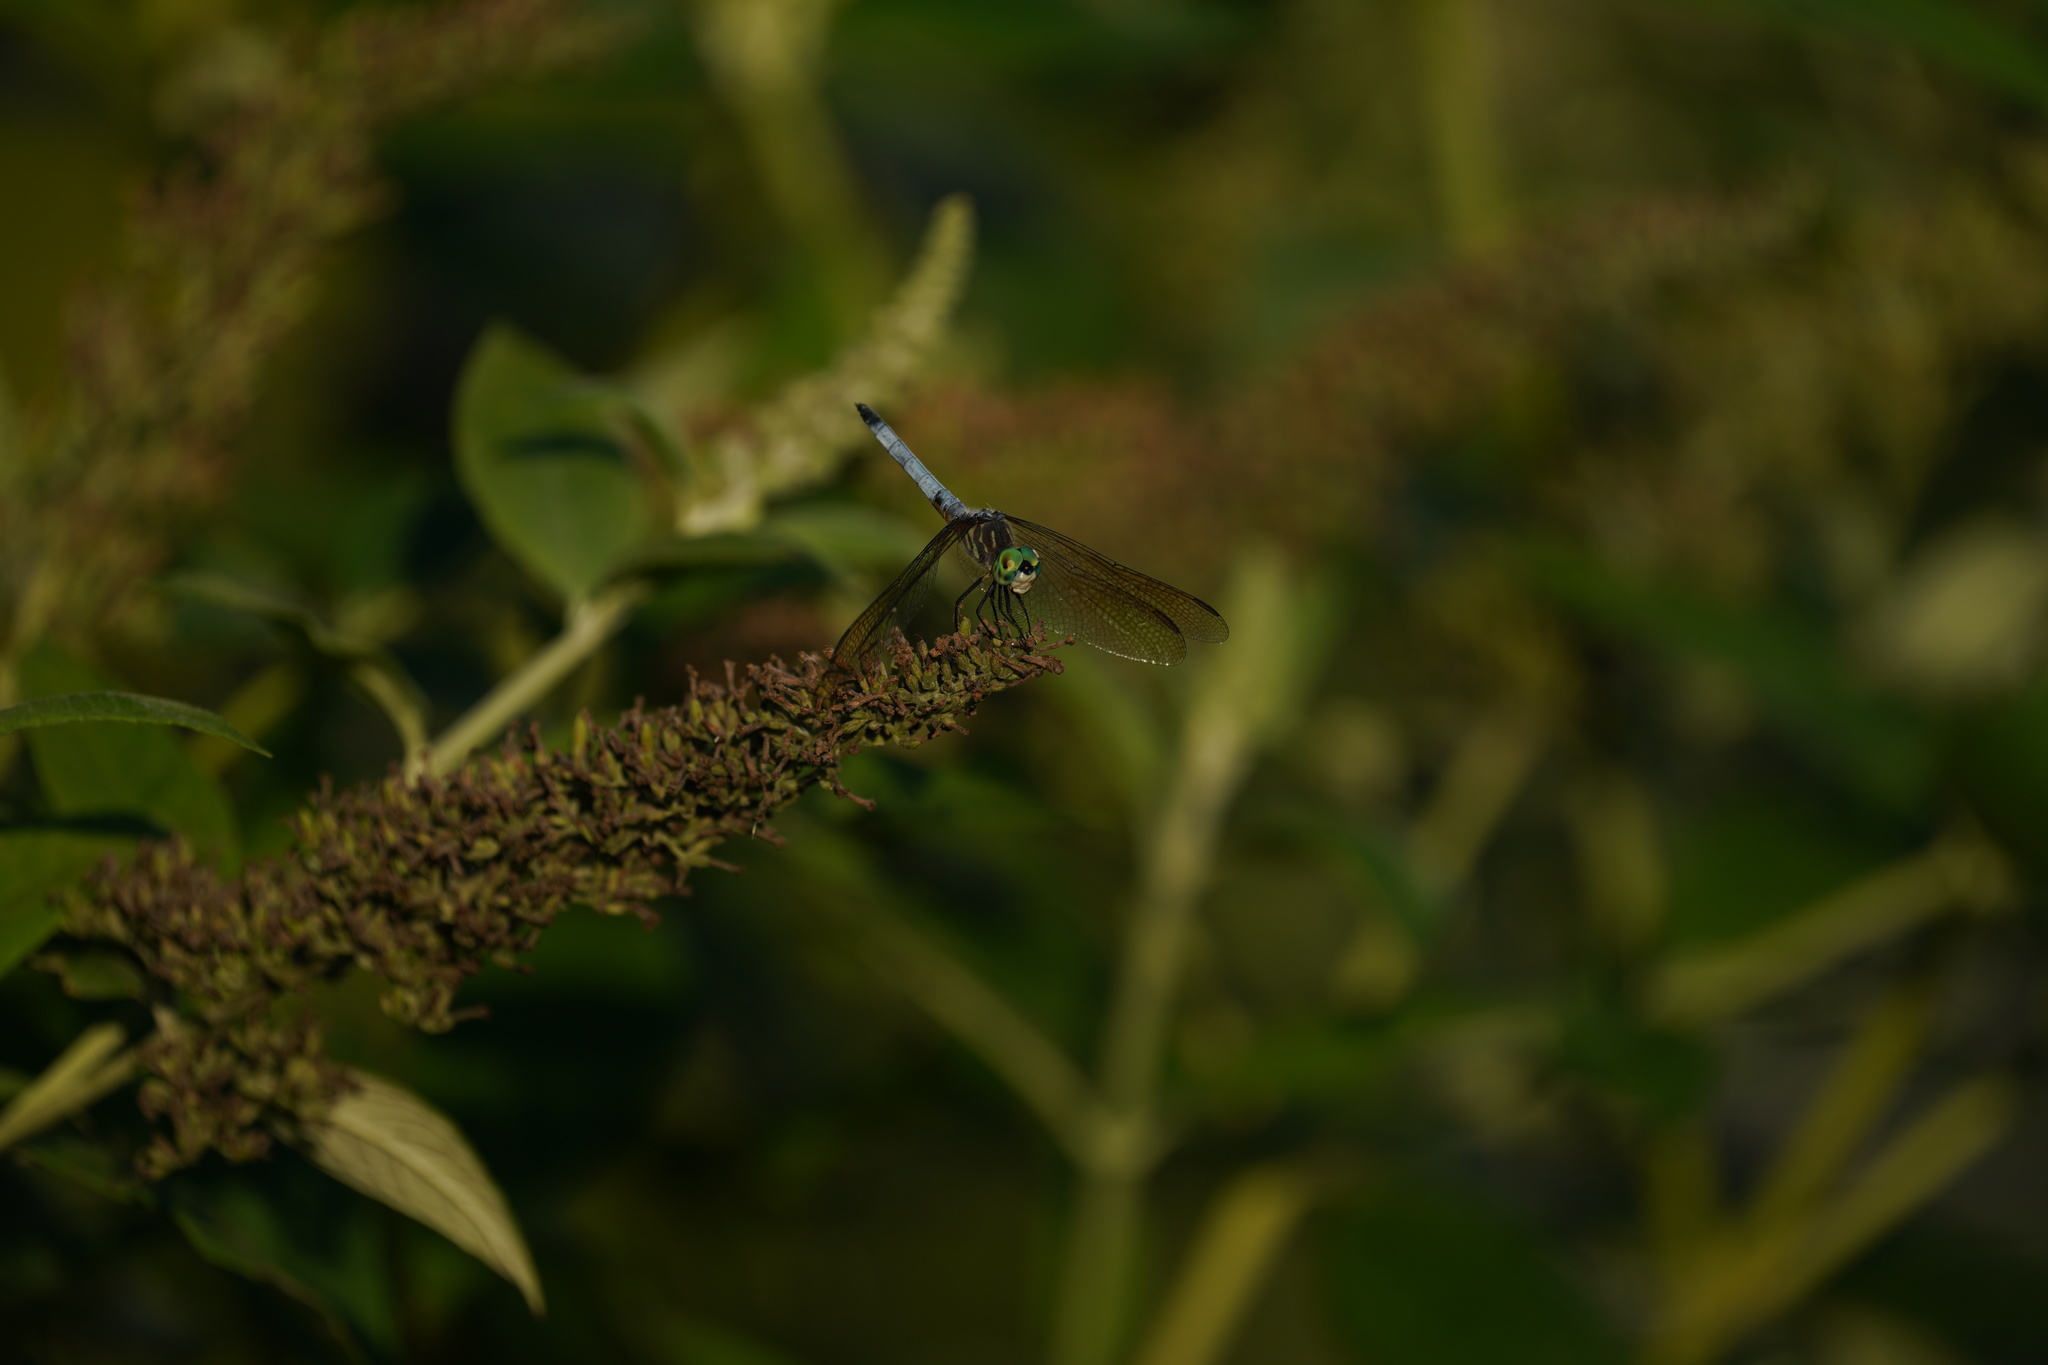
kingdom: Animalia
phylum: Arthropoda
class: Insecta
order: Odonata
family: Libellulidae
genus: Pachydiplax
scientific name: Pachydiplax longipennis
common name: Blue dasher
